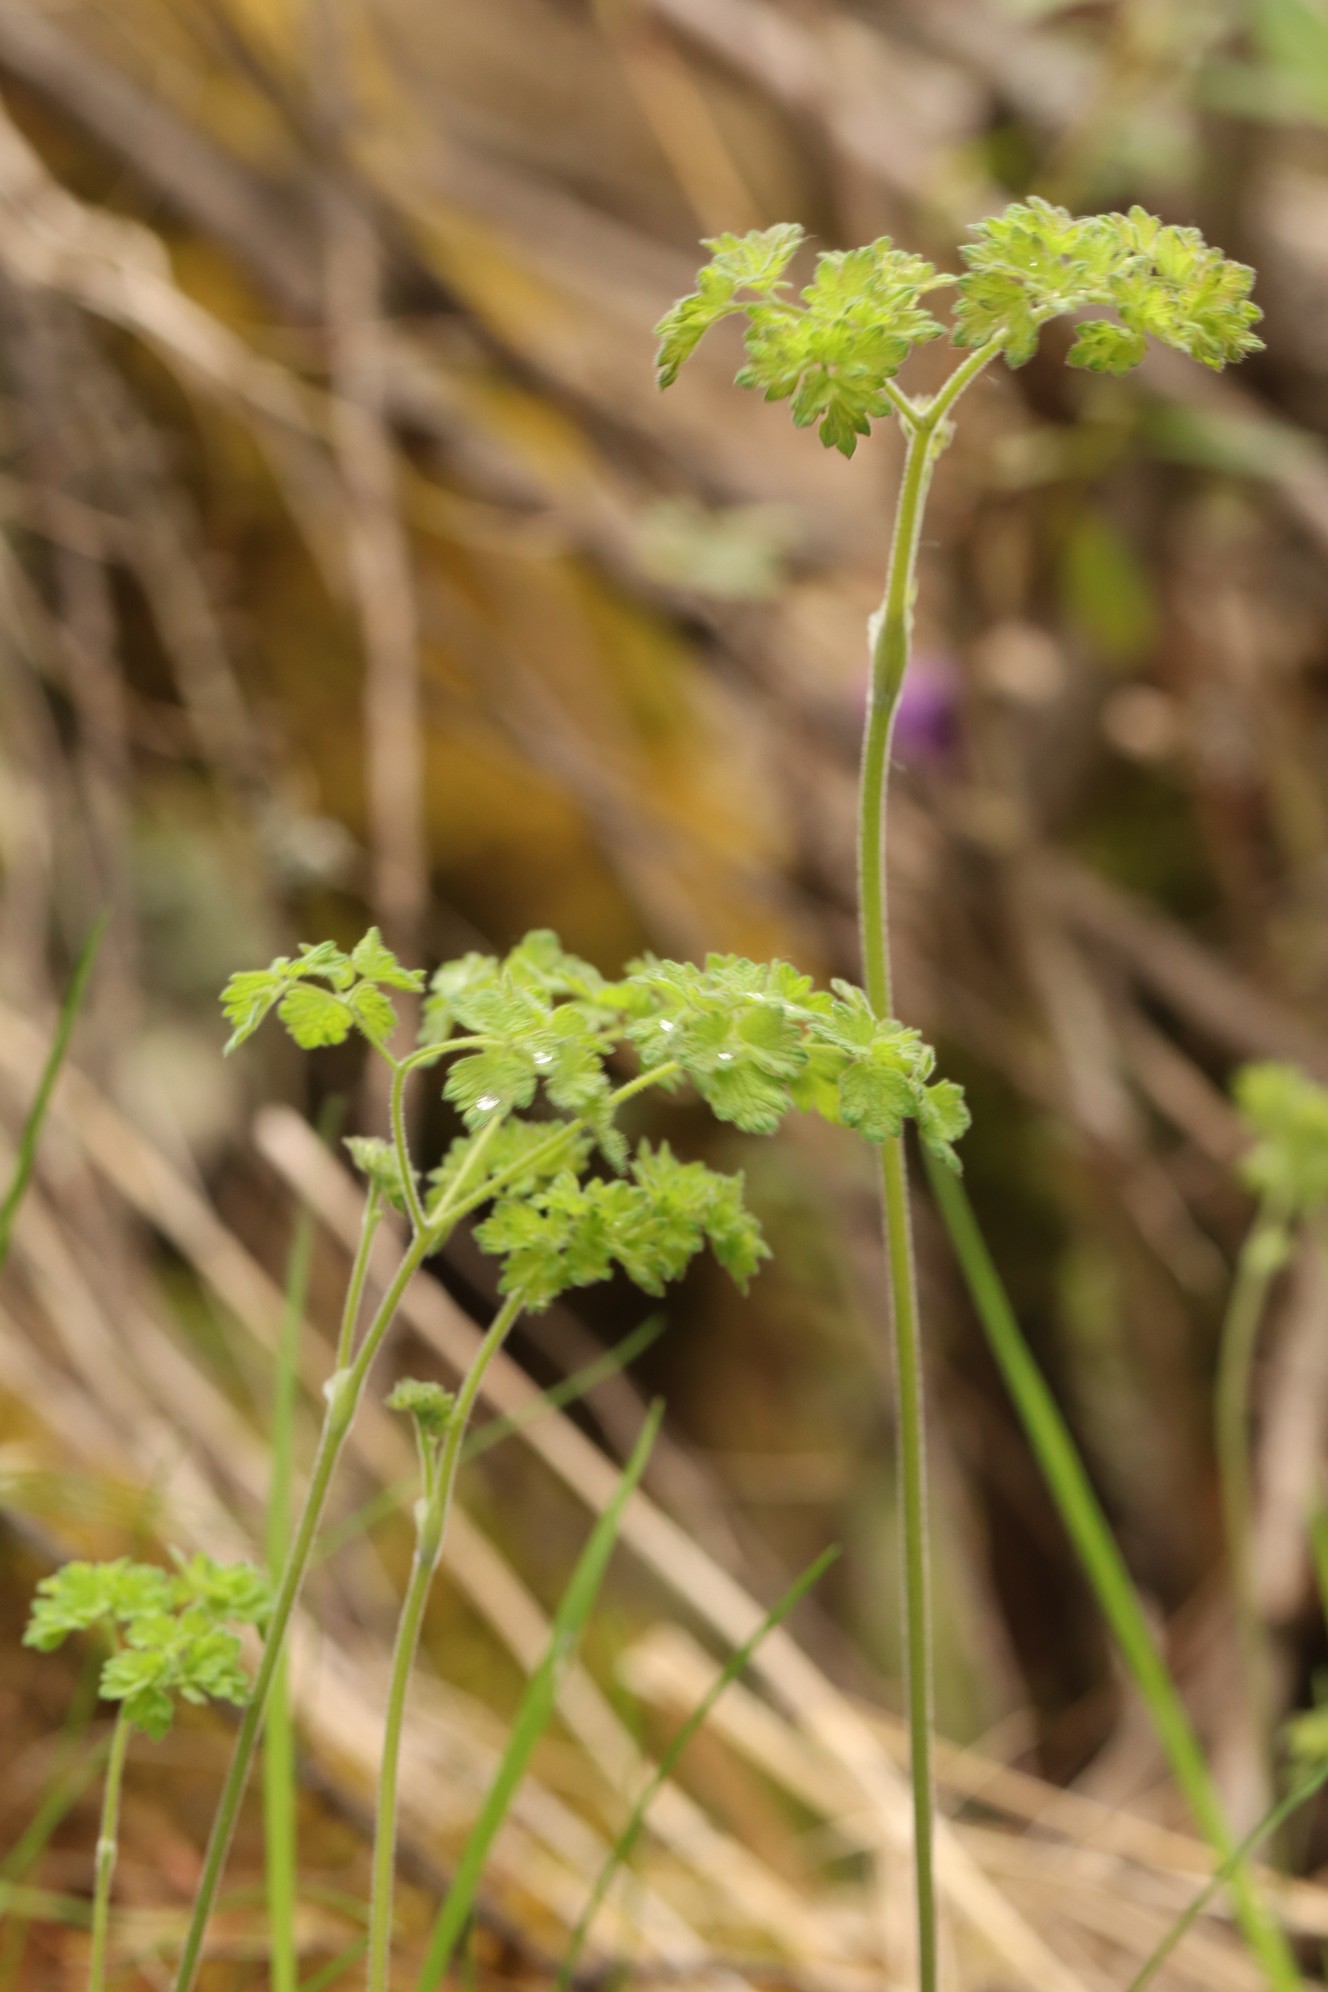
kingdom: Plantae
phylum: Tracheophyta
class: Magnoliopsida
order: Ranunculales
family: Ranunculaceae
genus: Thalictrum
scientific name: Thalictrum foetidum
